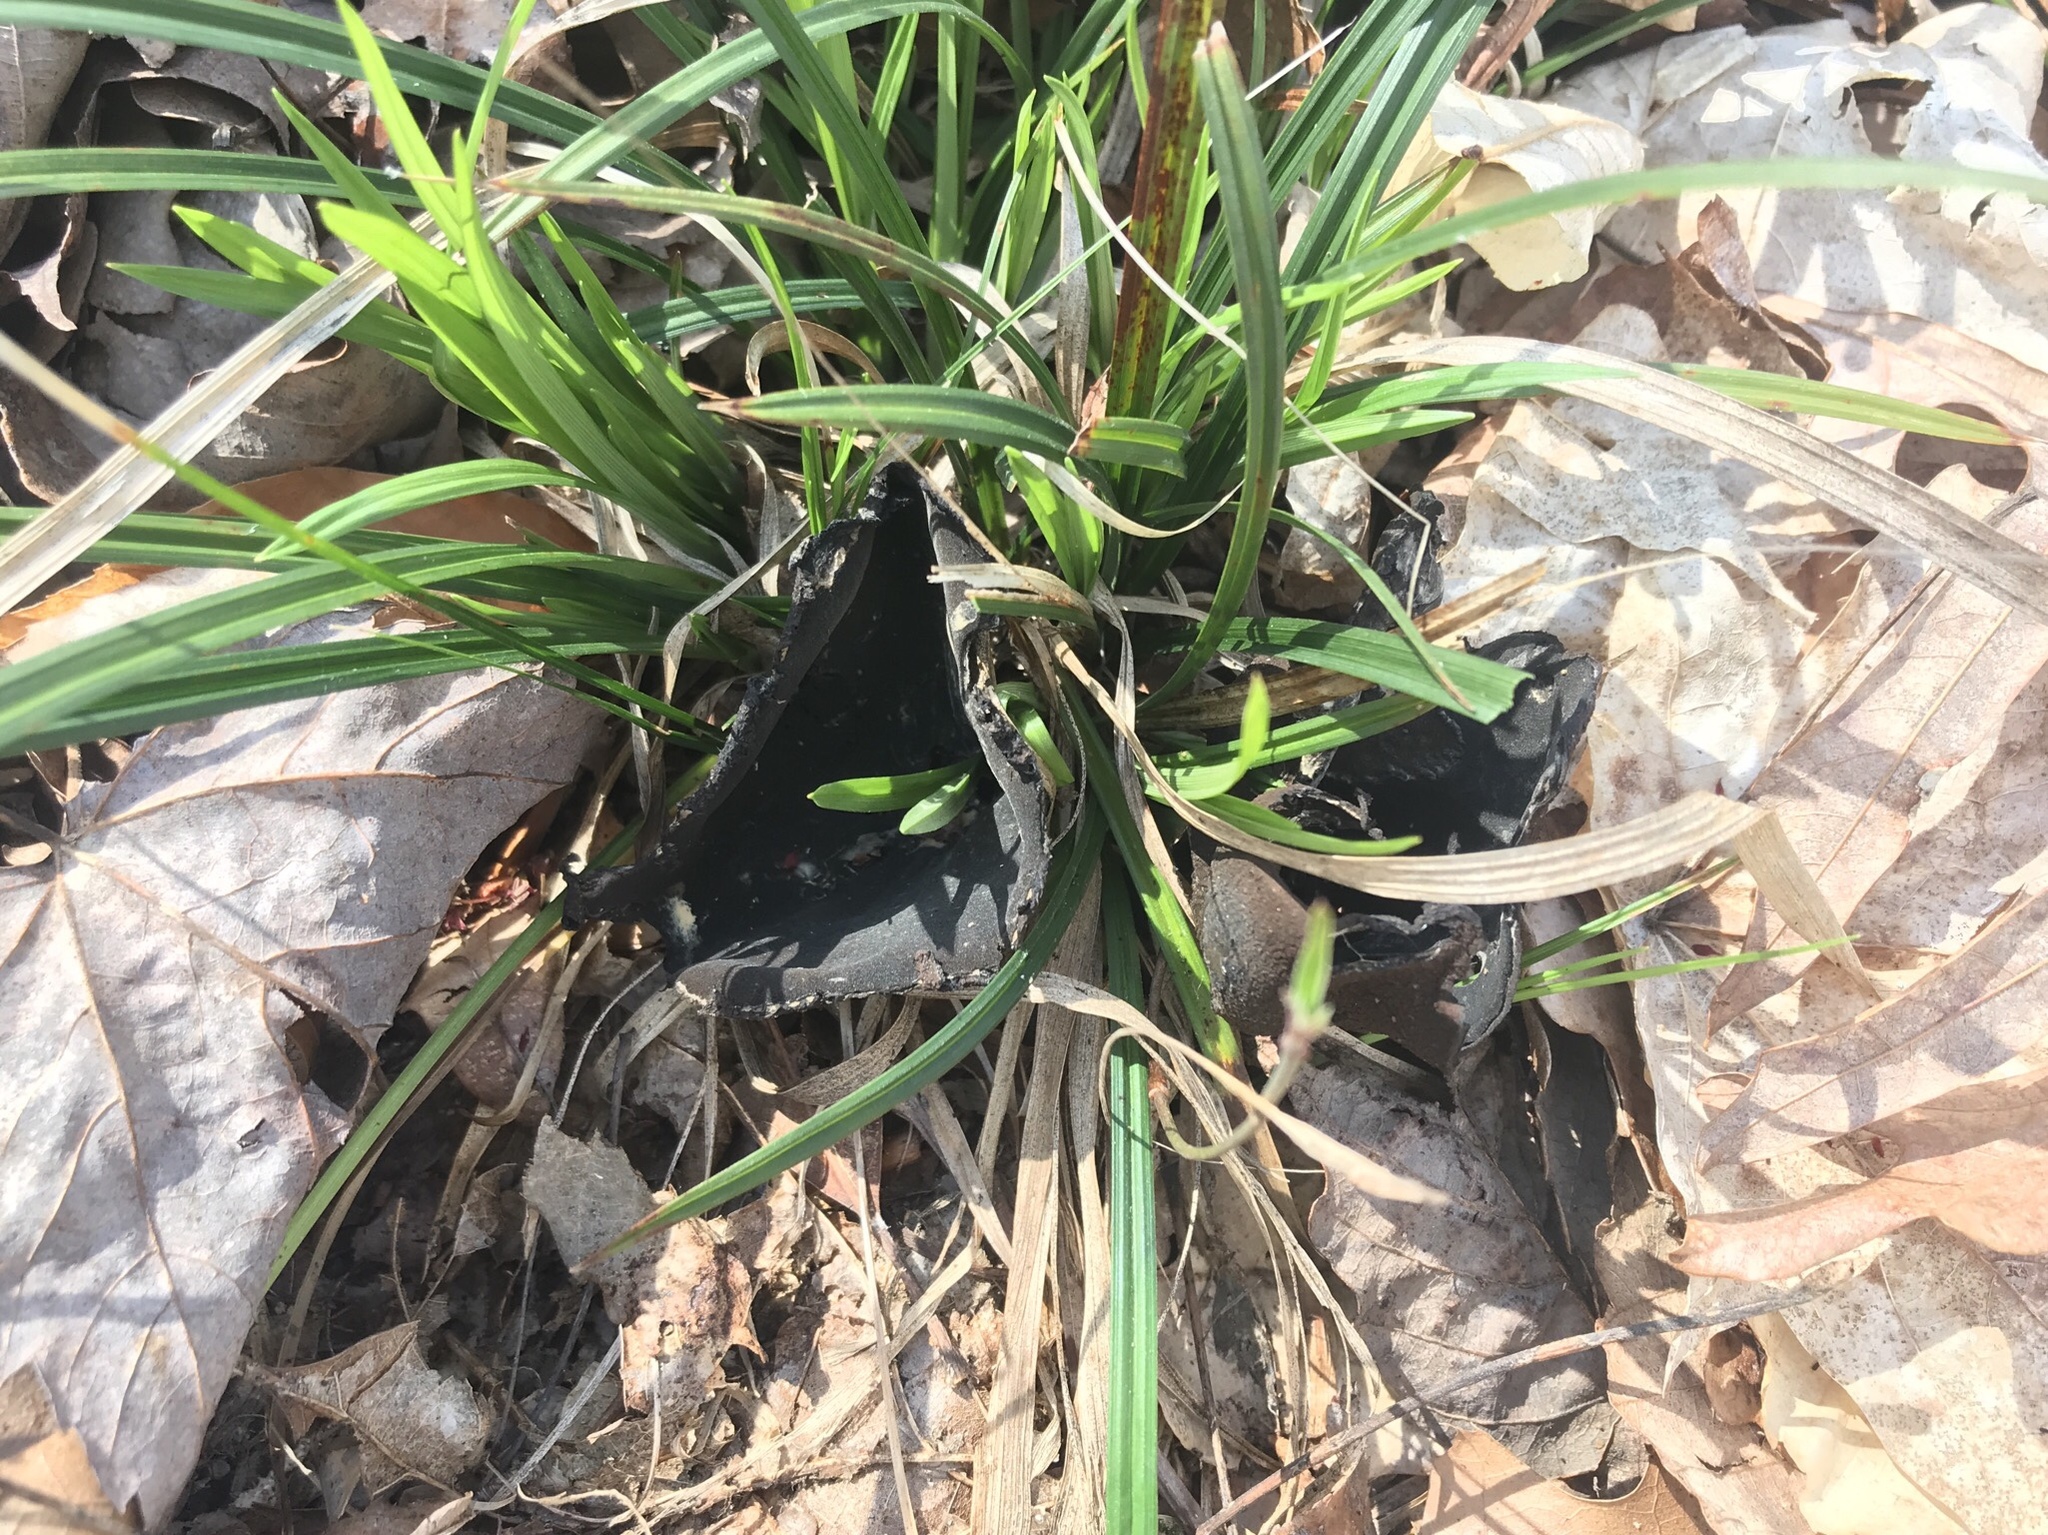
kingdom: Fungi
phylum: Ascomycota
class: Pezizomycetes
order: Pezizales
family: Sarcosomataceae
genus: Urnula
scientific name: Urnula craterium
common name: Devil's urn
